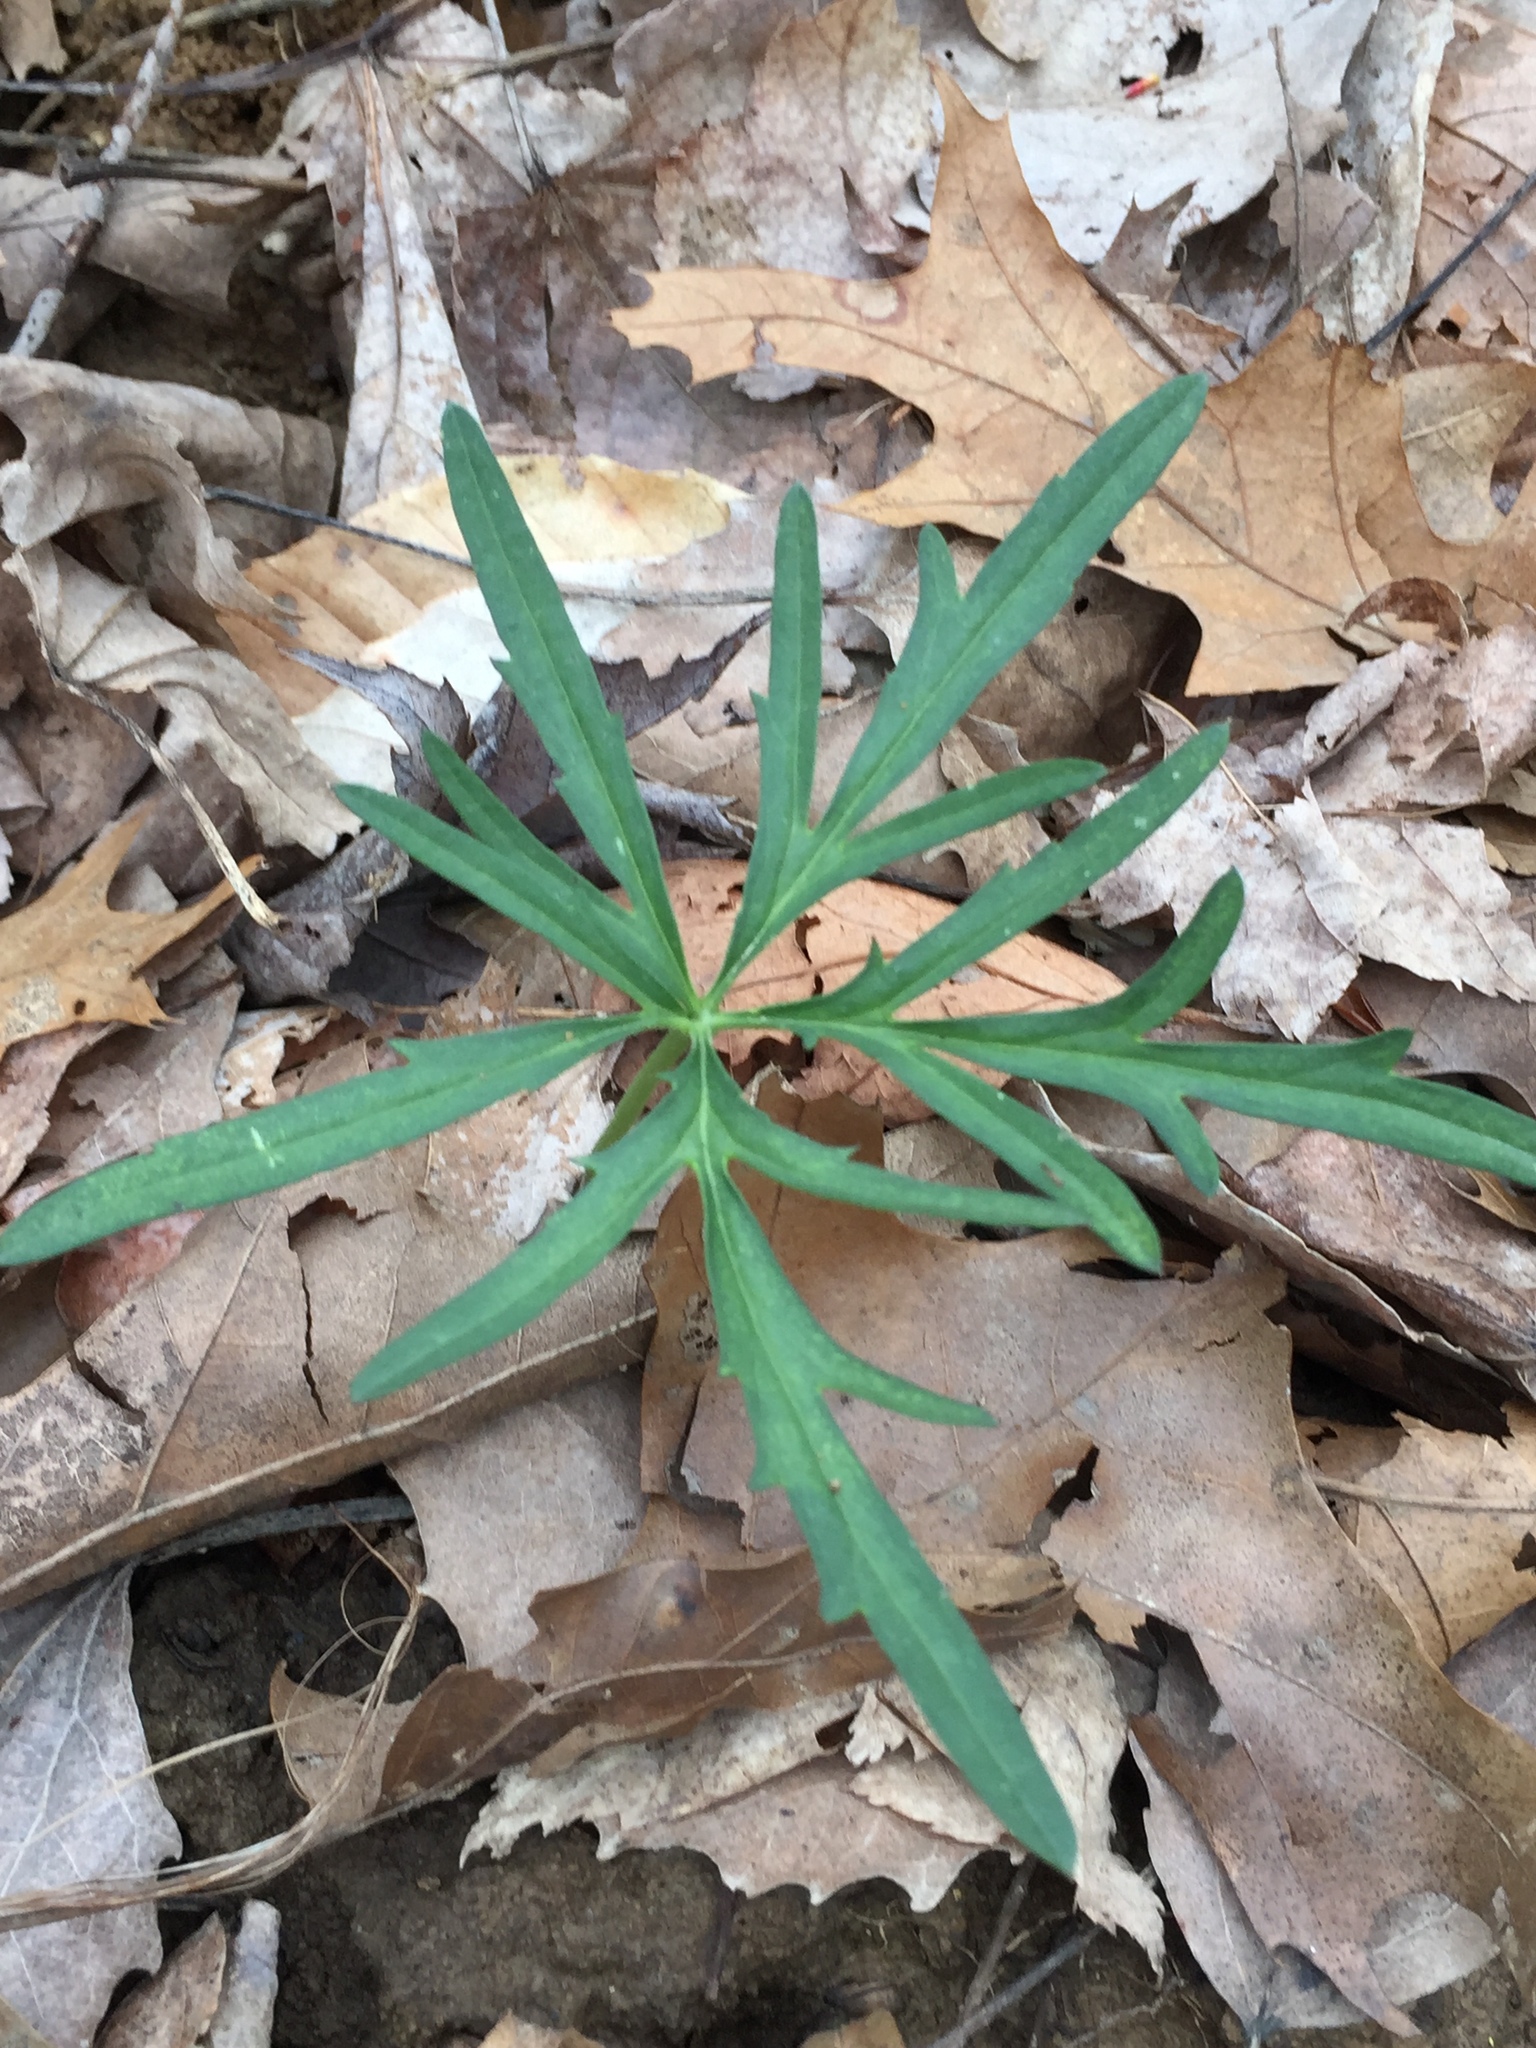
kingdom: Plantae
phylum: Tracheophyta
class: Magnoliopsida
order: Brassicales
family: Brassicaceae
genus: Cardamine
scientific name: Cardamine concatenata
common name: Cut-leaf toothcup
